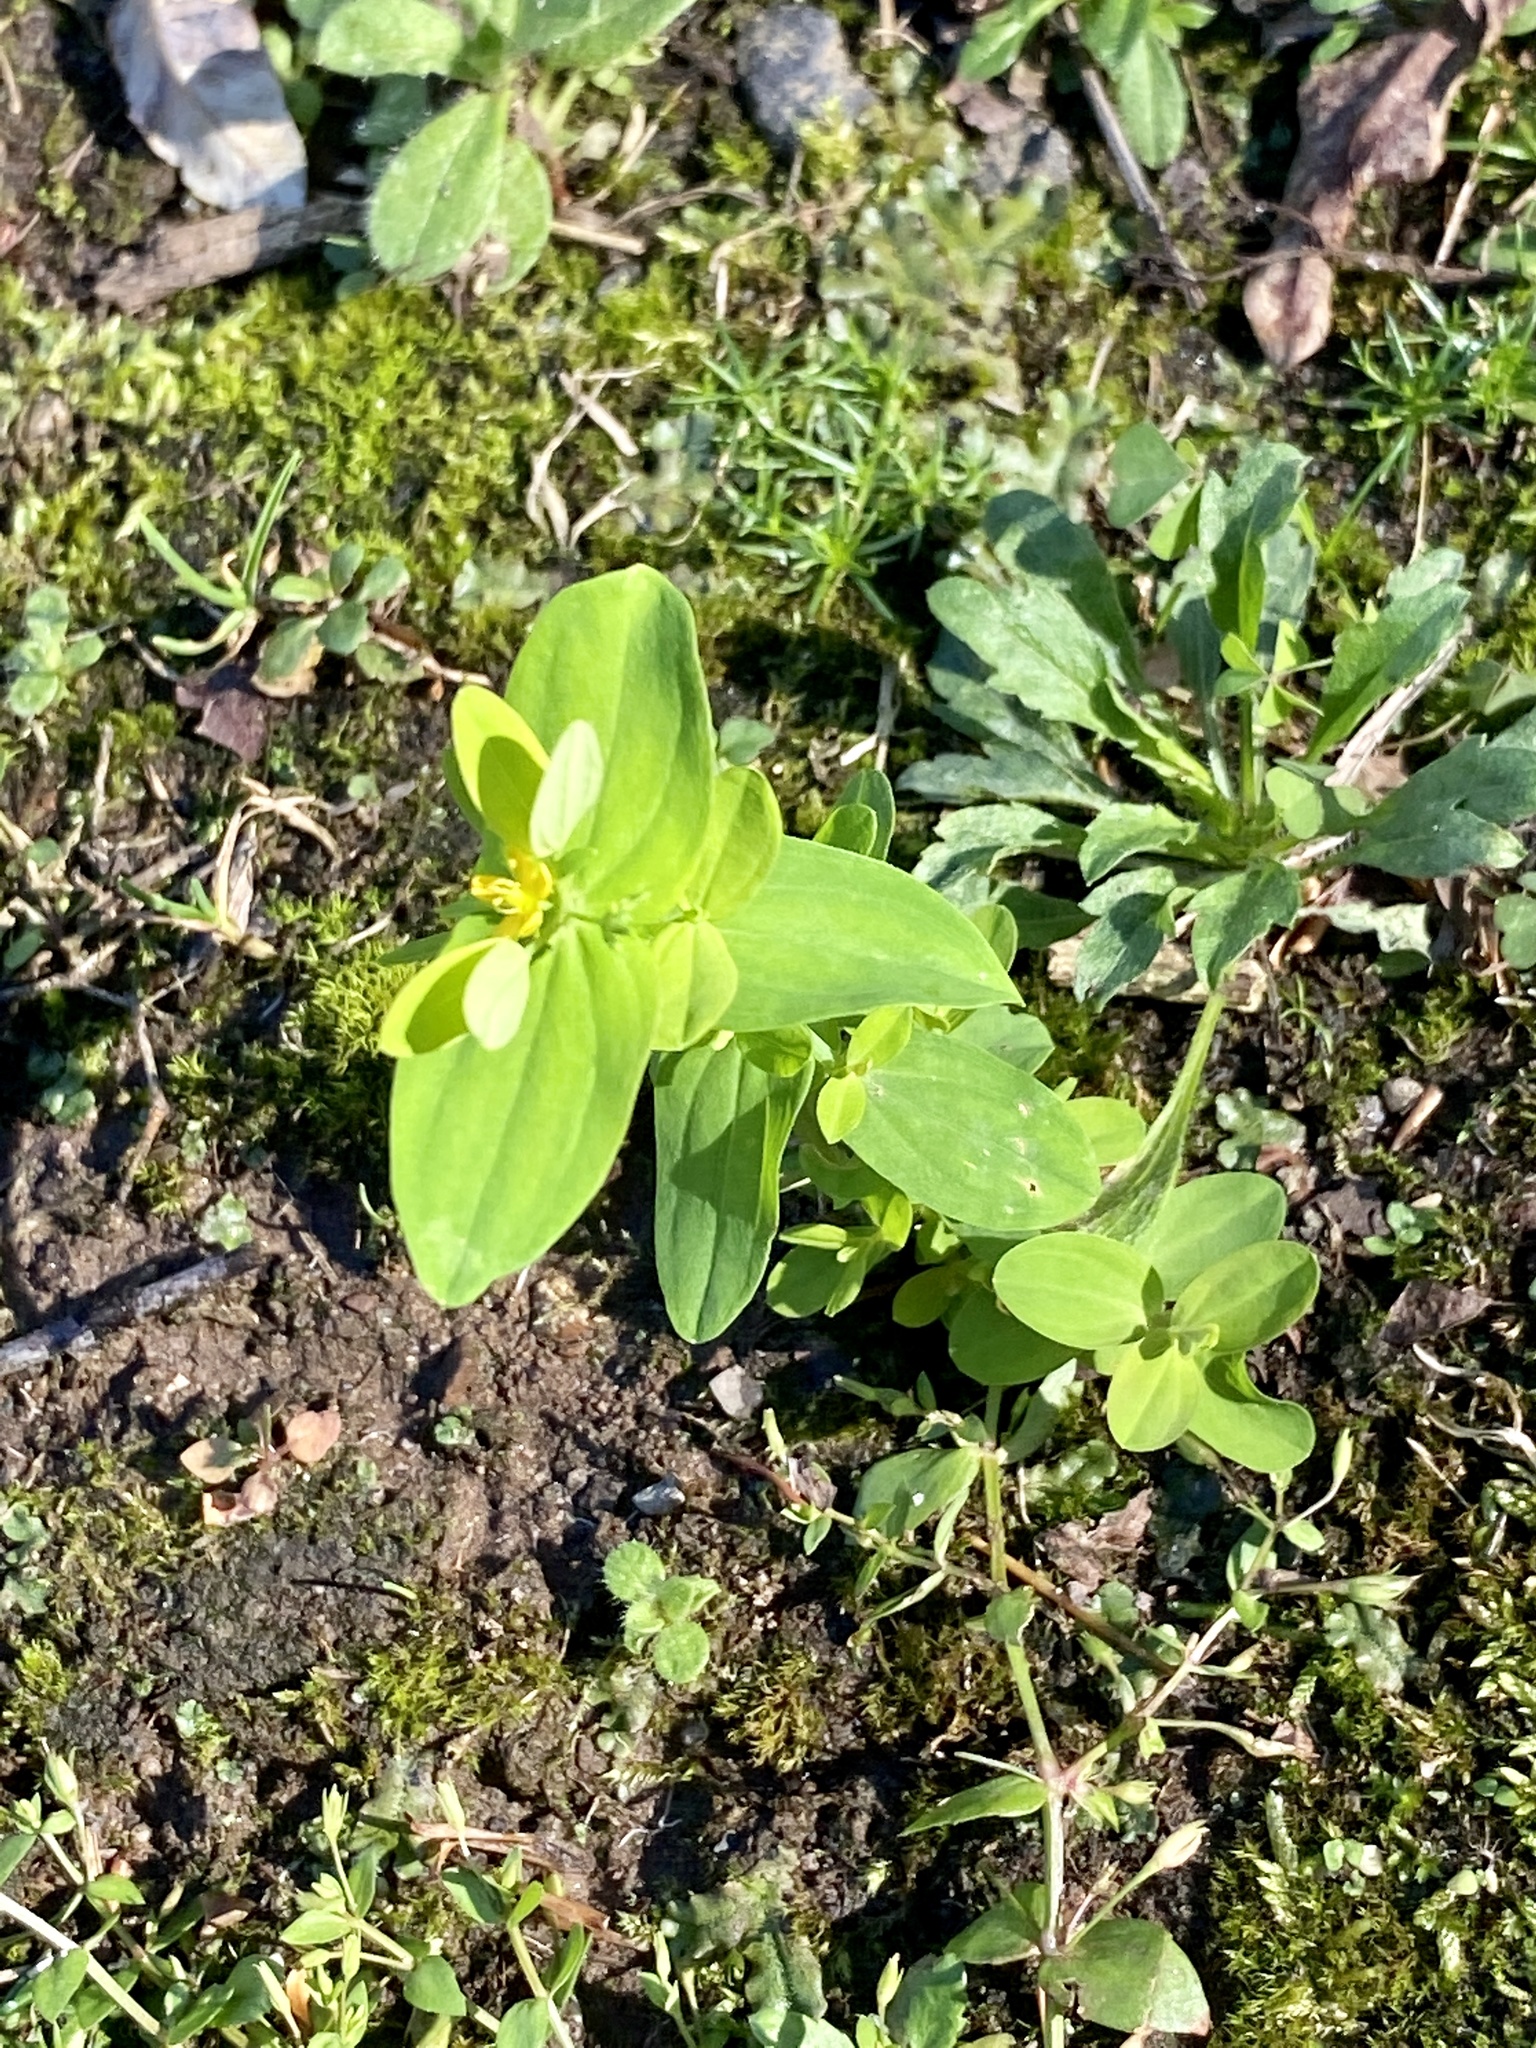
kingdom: Plantae
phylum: Tracheophyta
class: Magnoliopsida
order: Malpighiales
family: Hypericaceae
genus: Hypericum
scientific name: Hypericum mutilum
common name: Dwarf st. john's-wort
